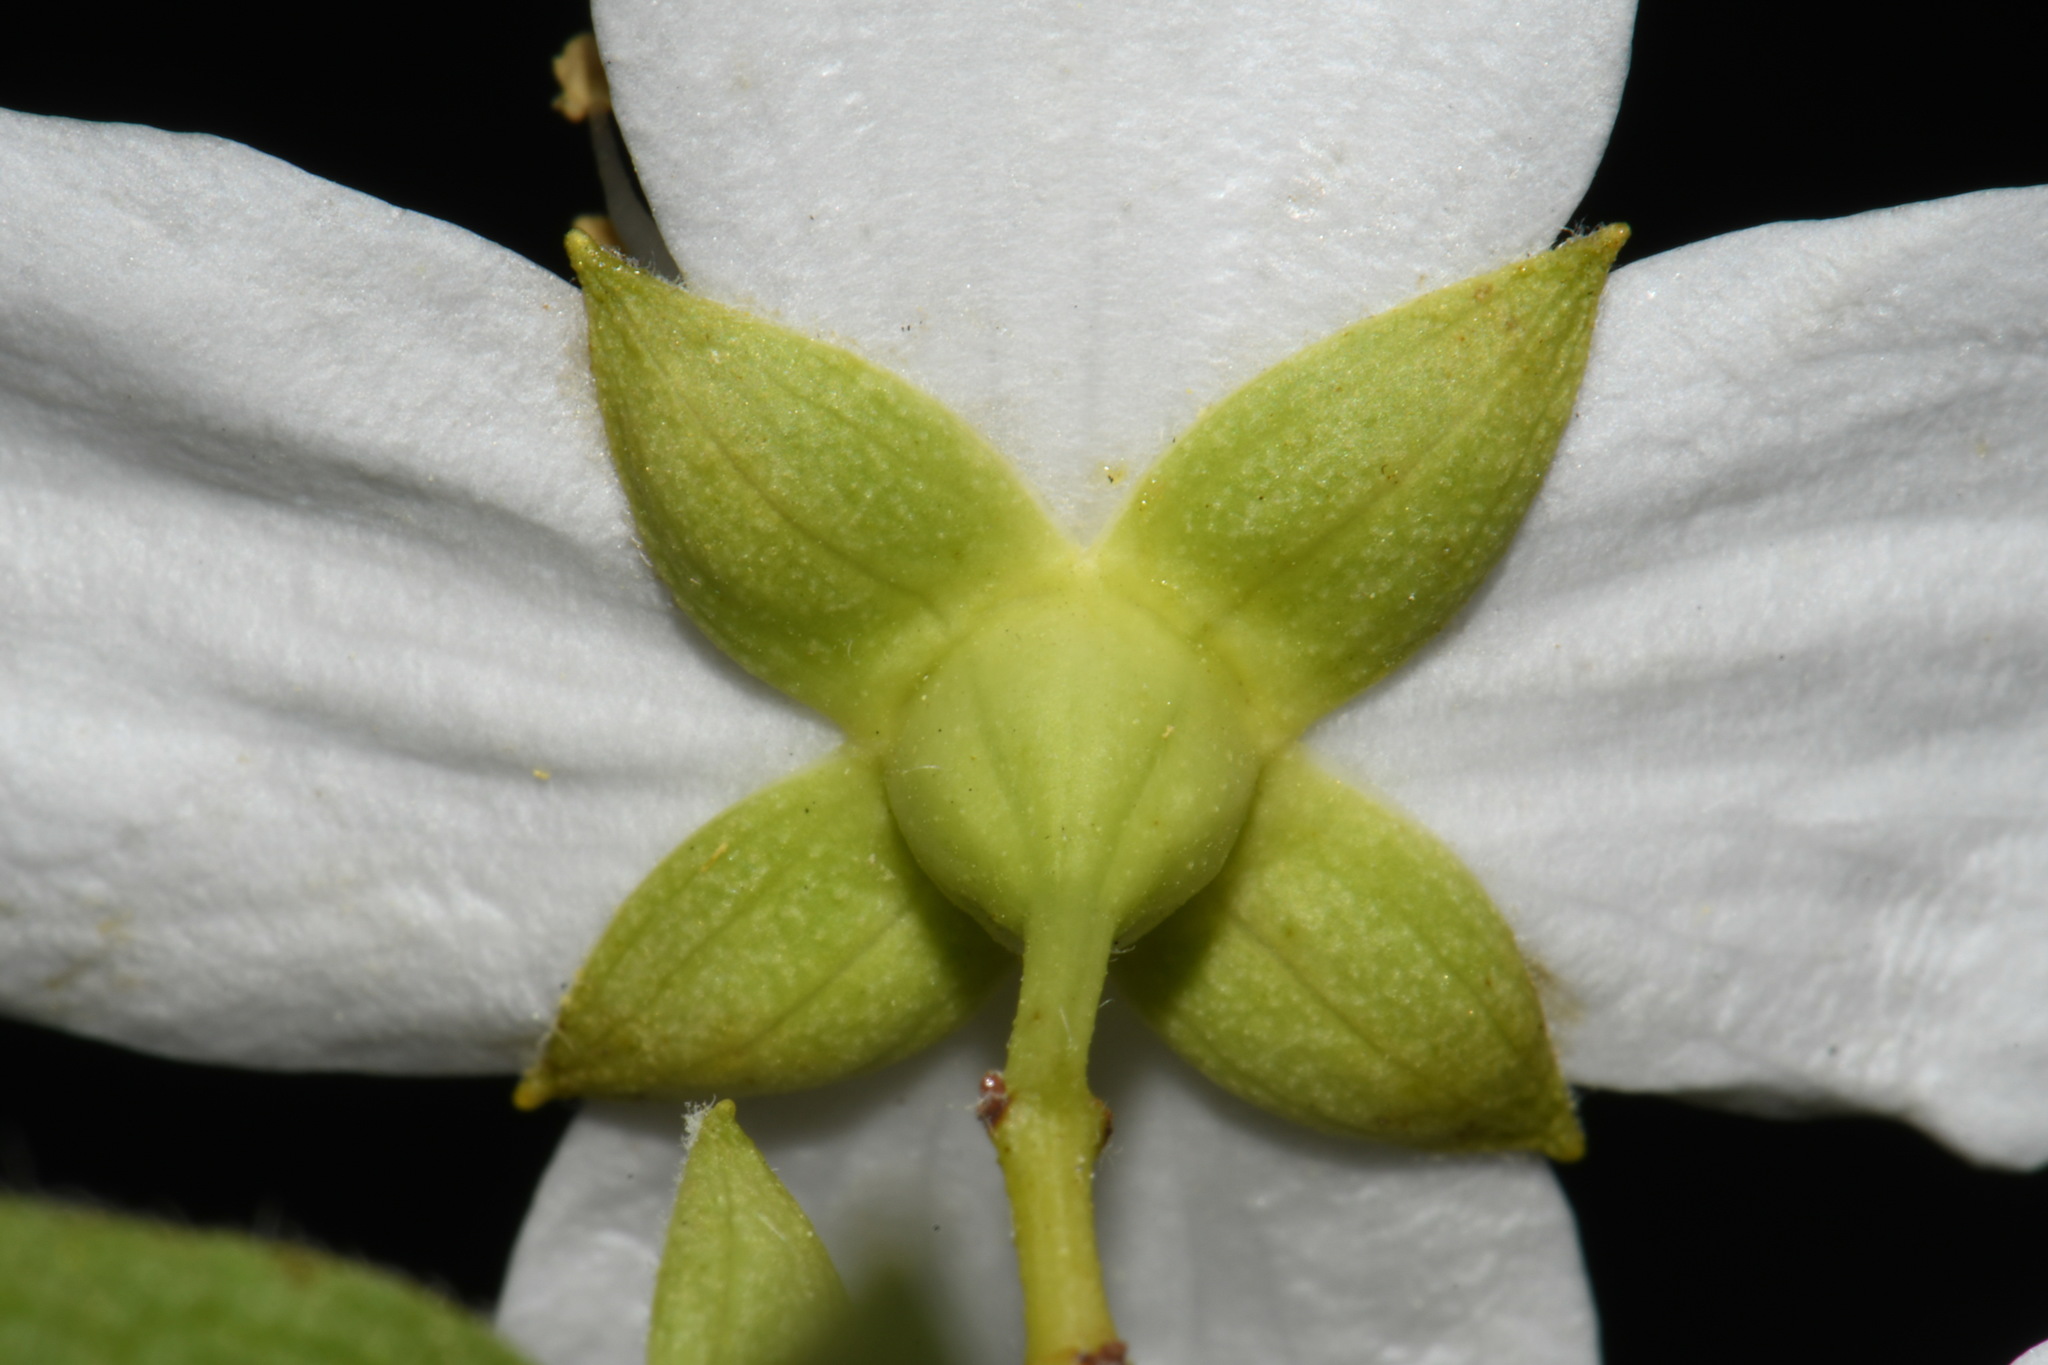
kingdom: Plantae
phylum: Tracheophyta
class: Magnoliopsida
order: Cornales
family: Hydrangeaceae
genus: Philadelphus
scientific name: Philadelphus lewisii
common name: Lewis's mock orange
